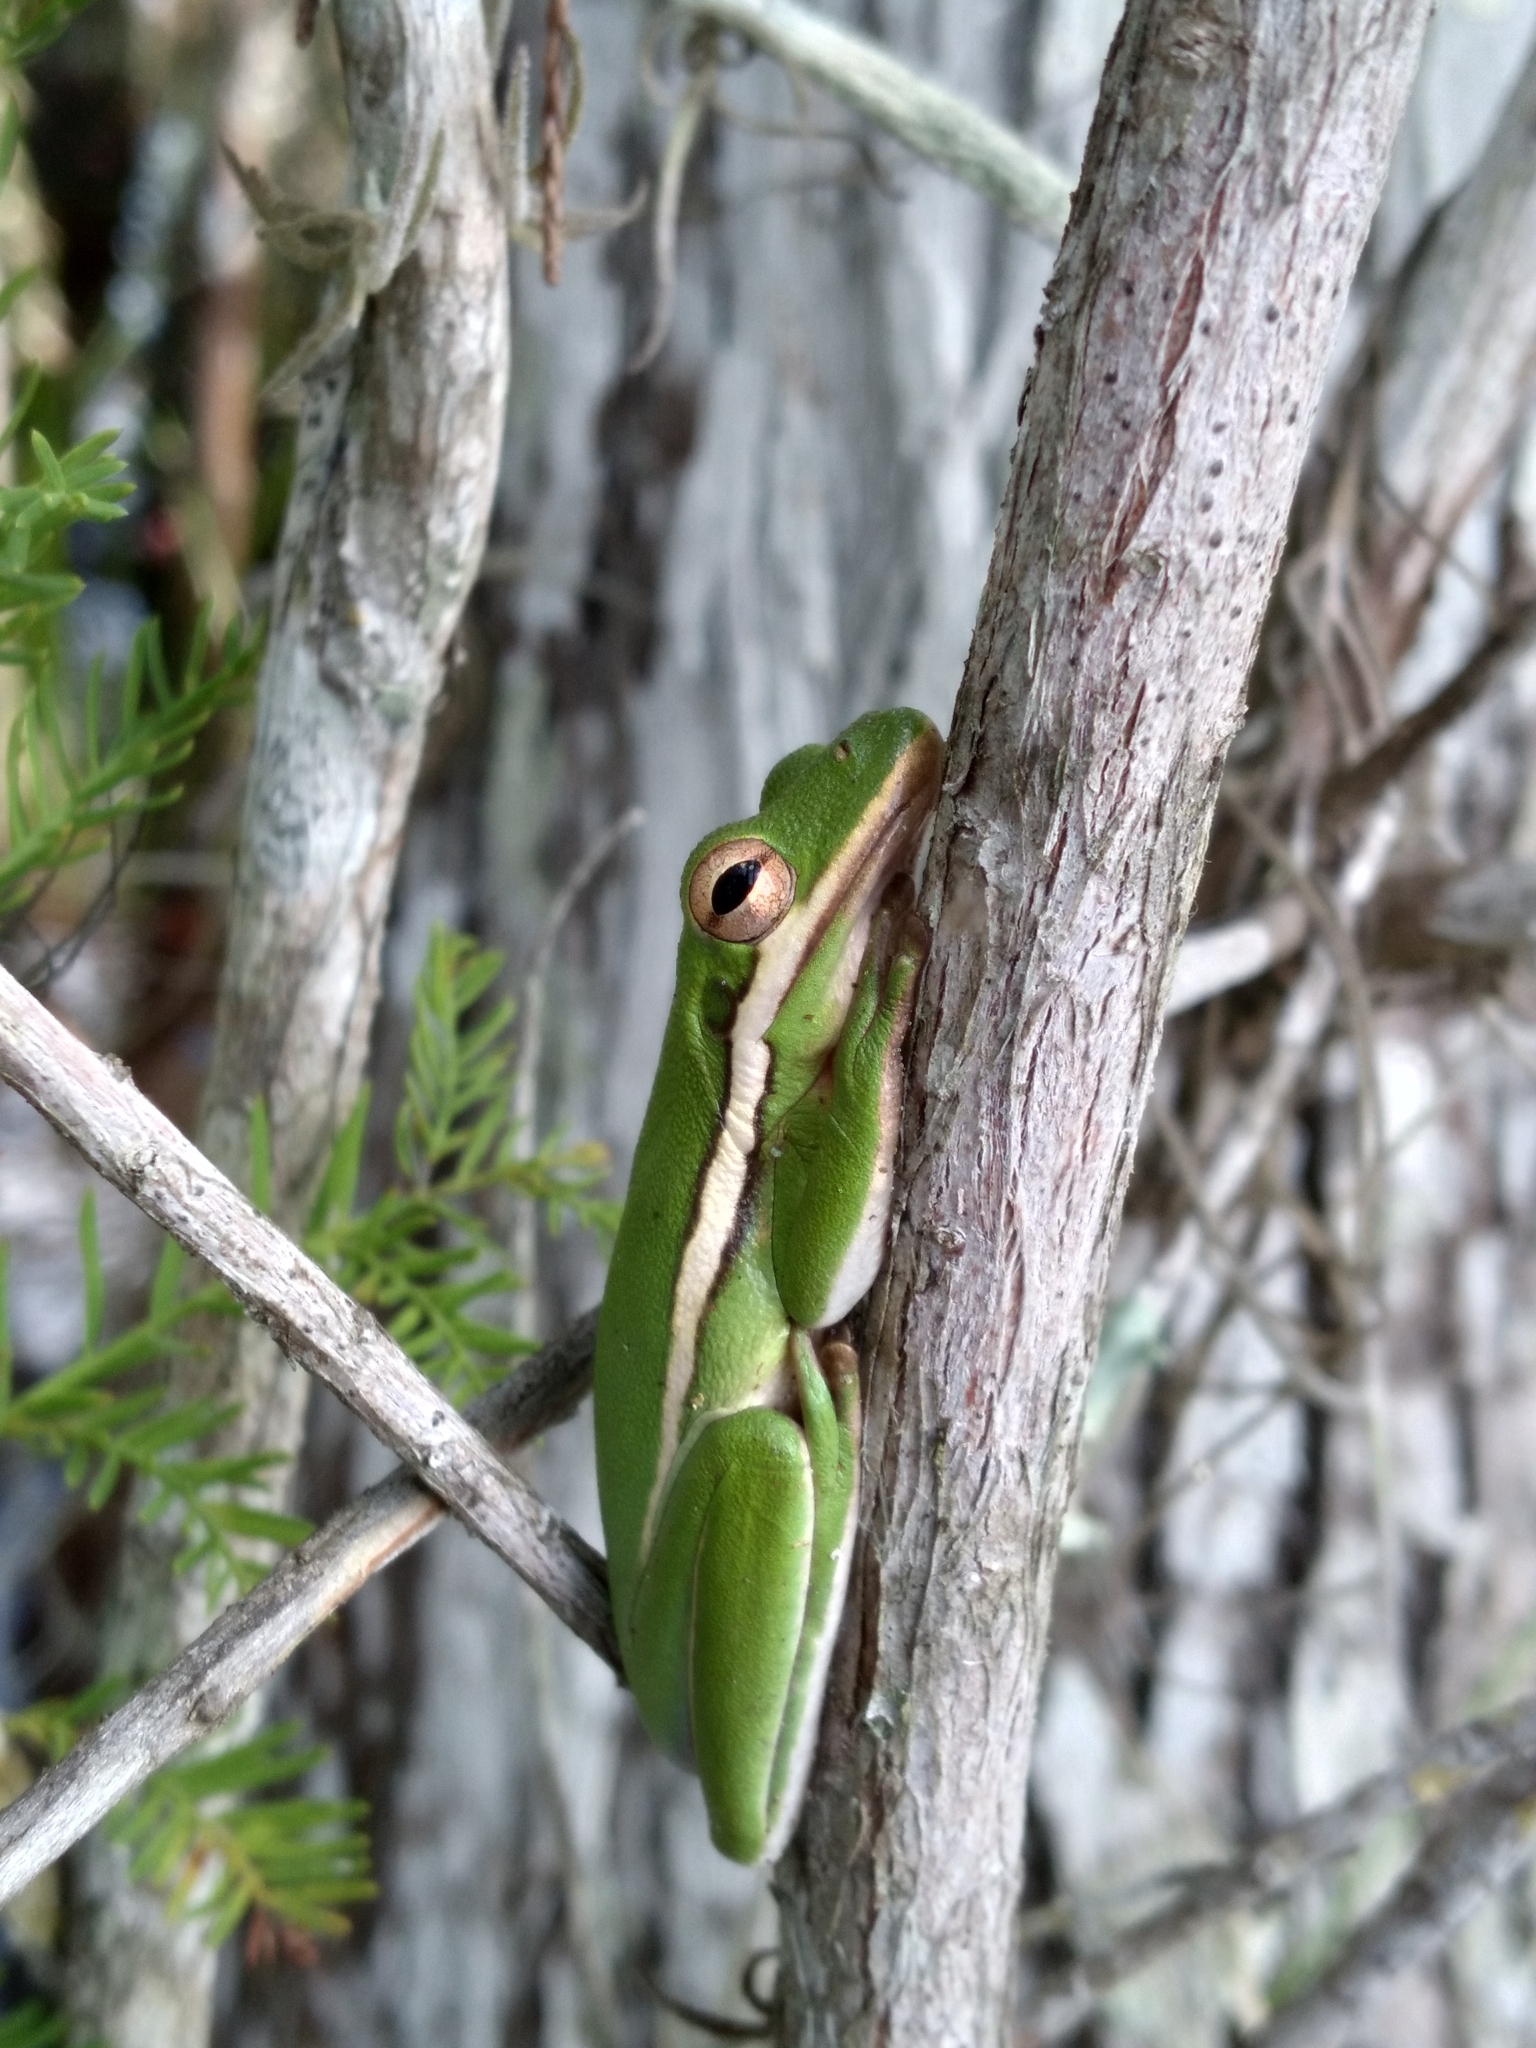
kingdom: Animalia
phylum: Chordata
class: Amphibia
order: Anura
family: Hylidae
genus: Dryophytes
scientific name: Dryophytes cinereus
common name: Green treefrog
